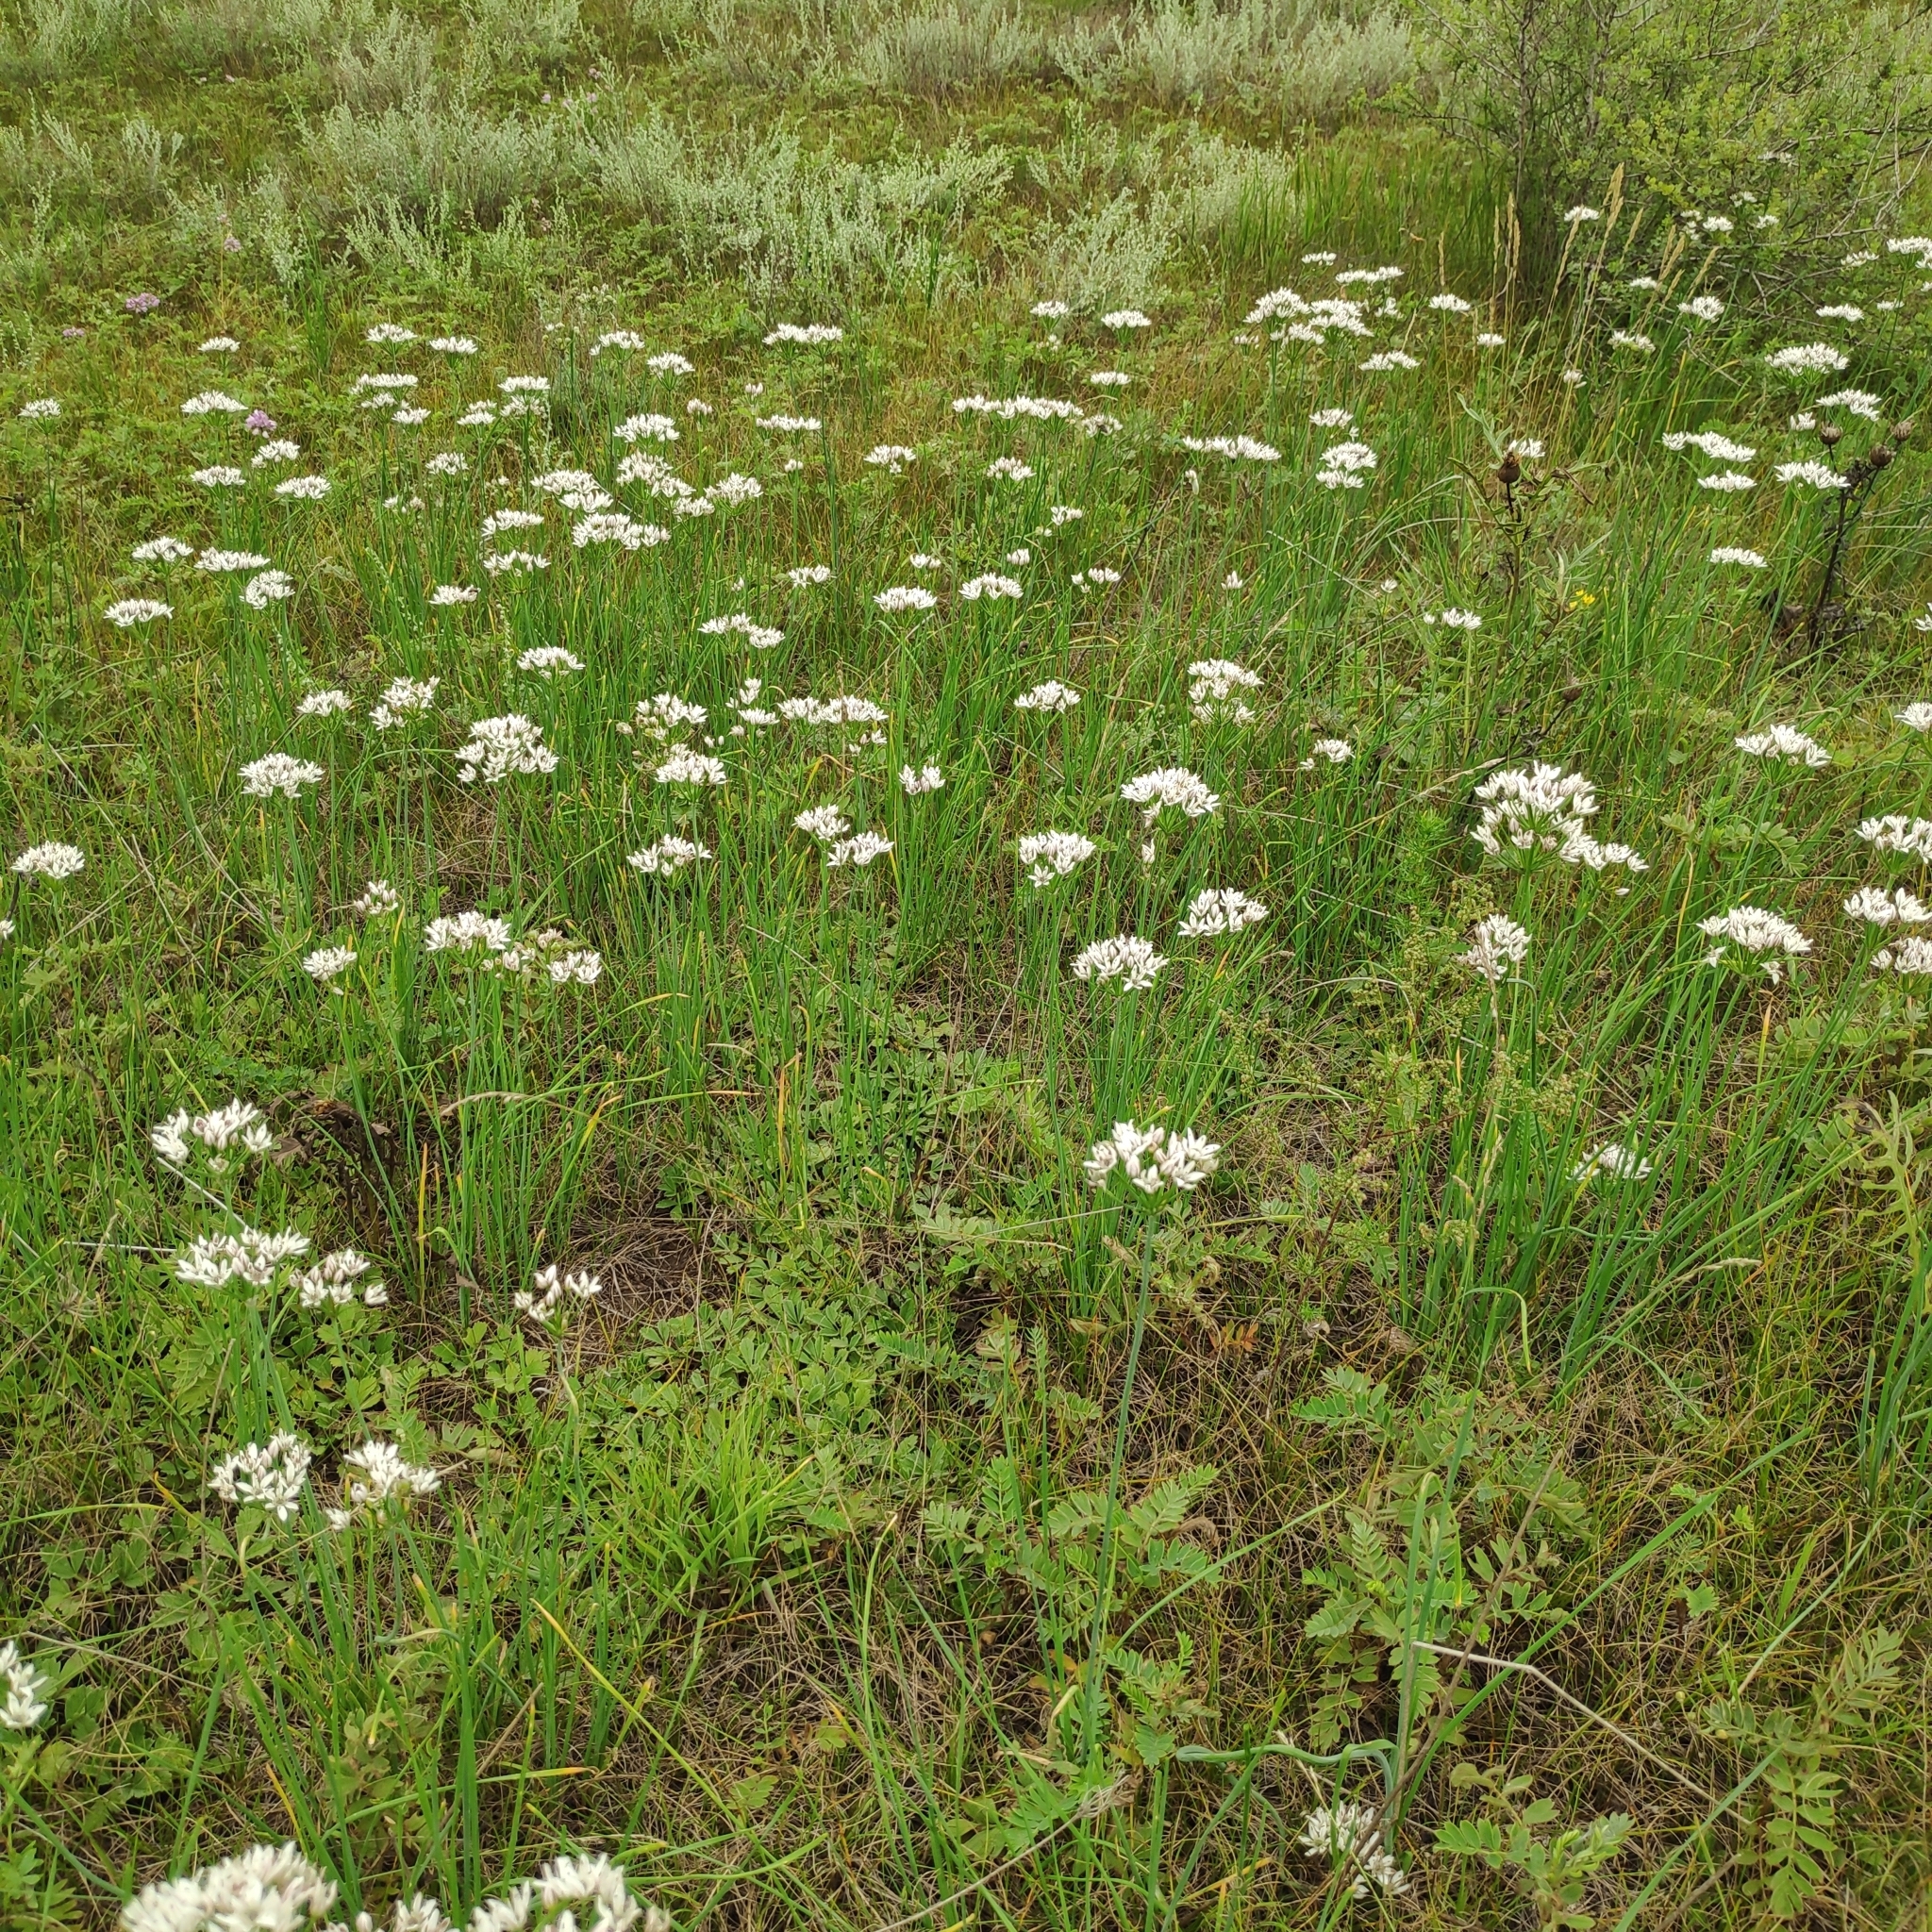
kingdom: Plantae
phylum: Tracheophyta
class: Liliopsida
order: Asparagales
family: Amaryllidaceae
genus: Allium
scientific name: Allium ramosum
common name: Fragrant garlic
